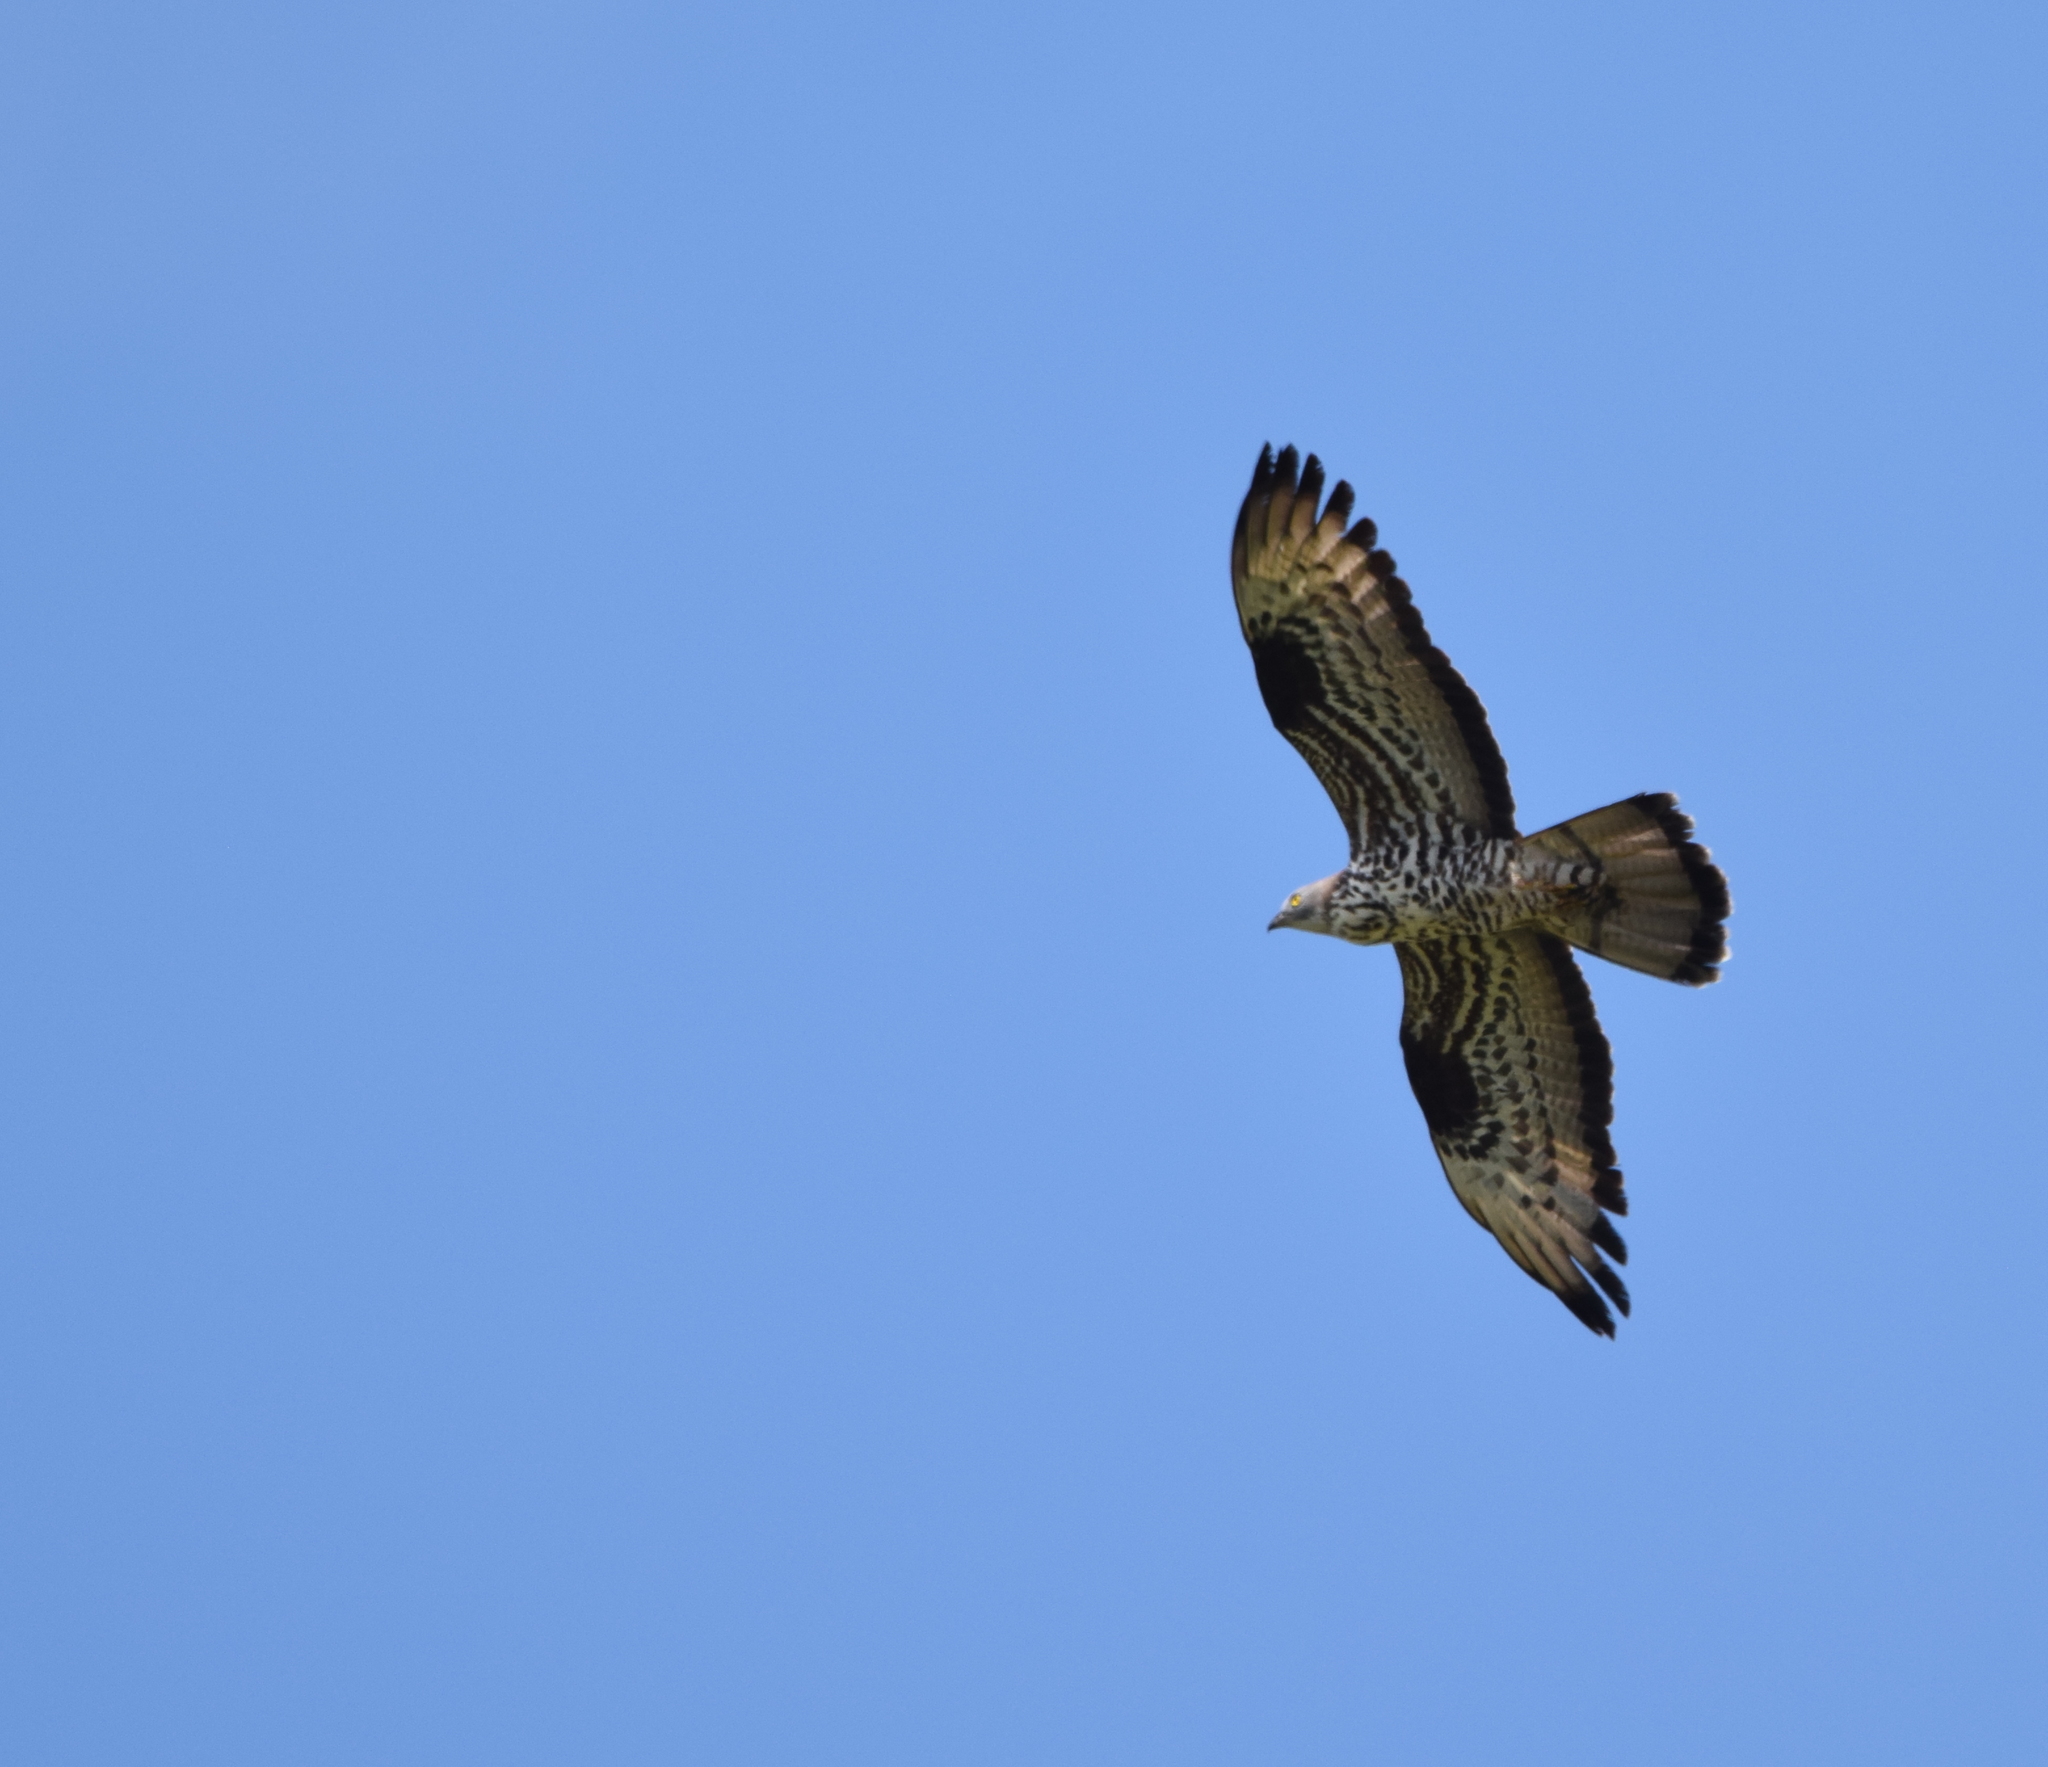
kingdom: Animalia
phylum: Chordata
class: Aves
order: Accipitriformes
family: Accipitridae
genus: Pernis
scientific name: Pernis apivorus
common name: European honey buzzard
